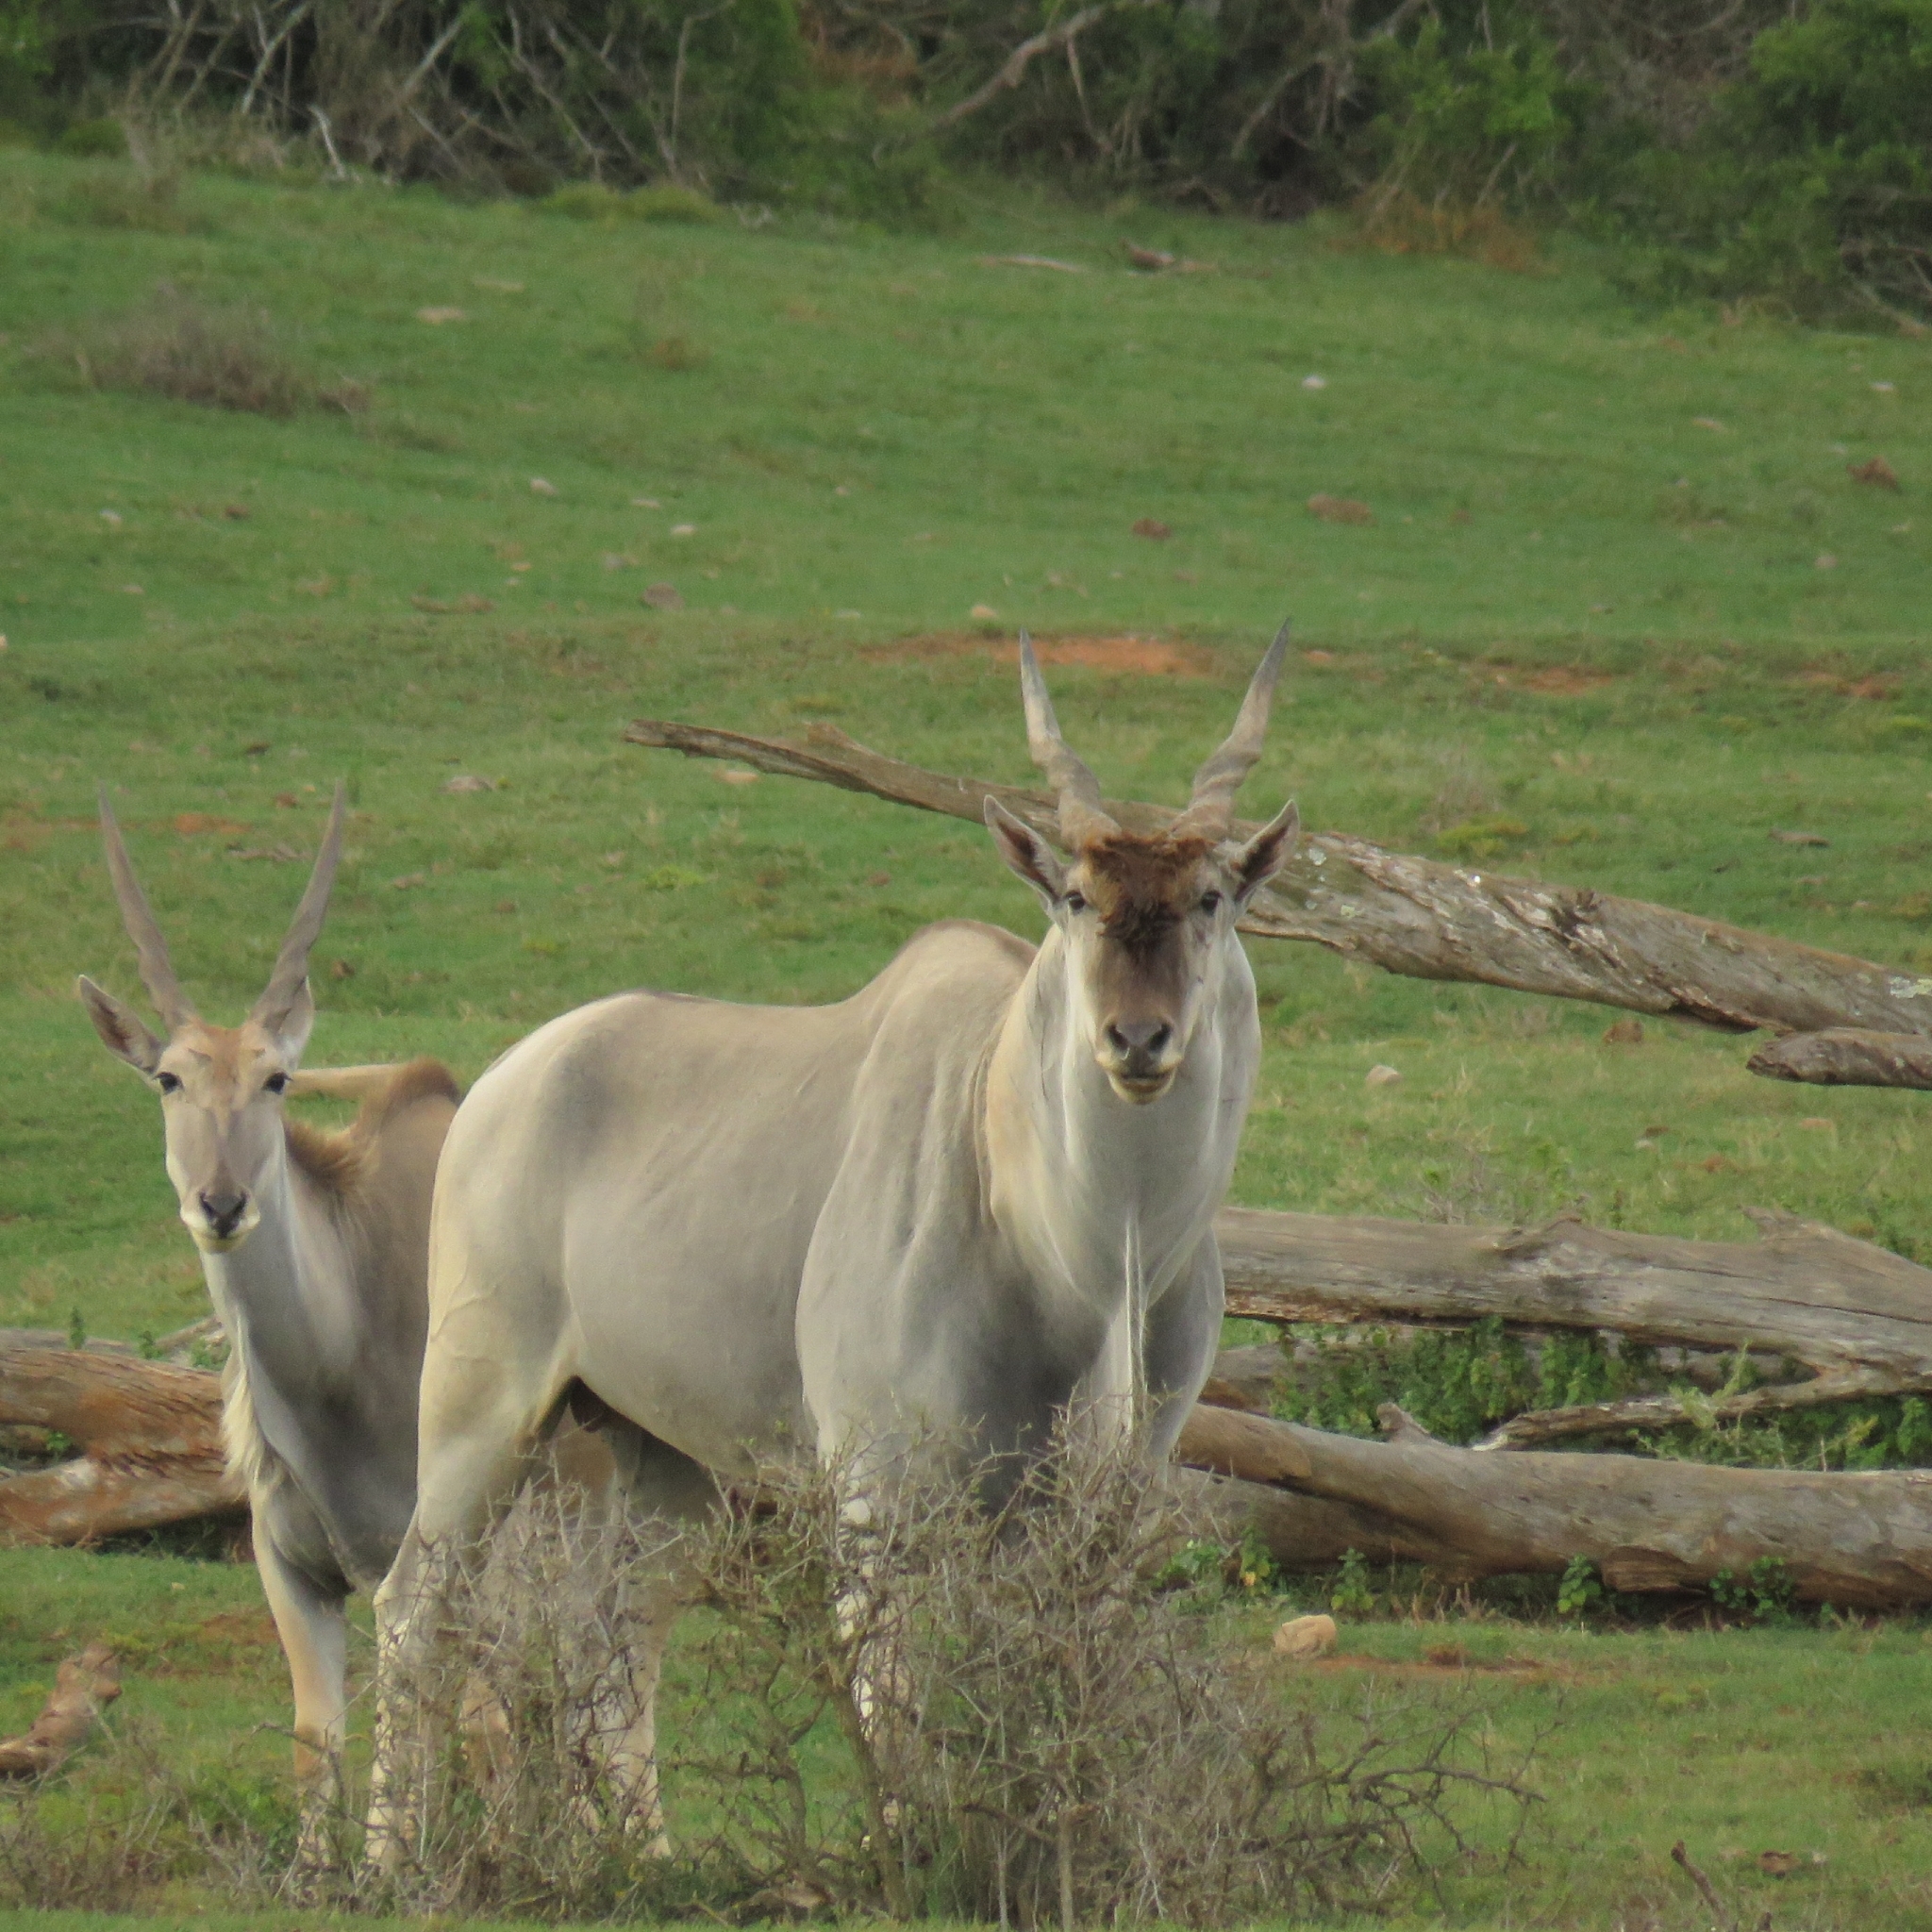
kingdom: Animalia
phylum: Chordata
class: Mammalia
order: Artiodactyla
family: Bovidae
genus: Taurotragus
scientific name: Taurotragus oryx
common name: Common eland
